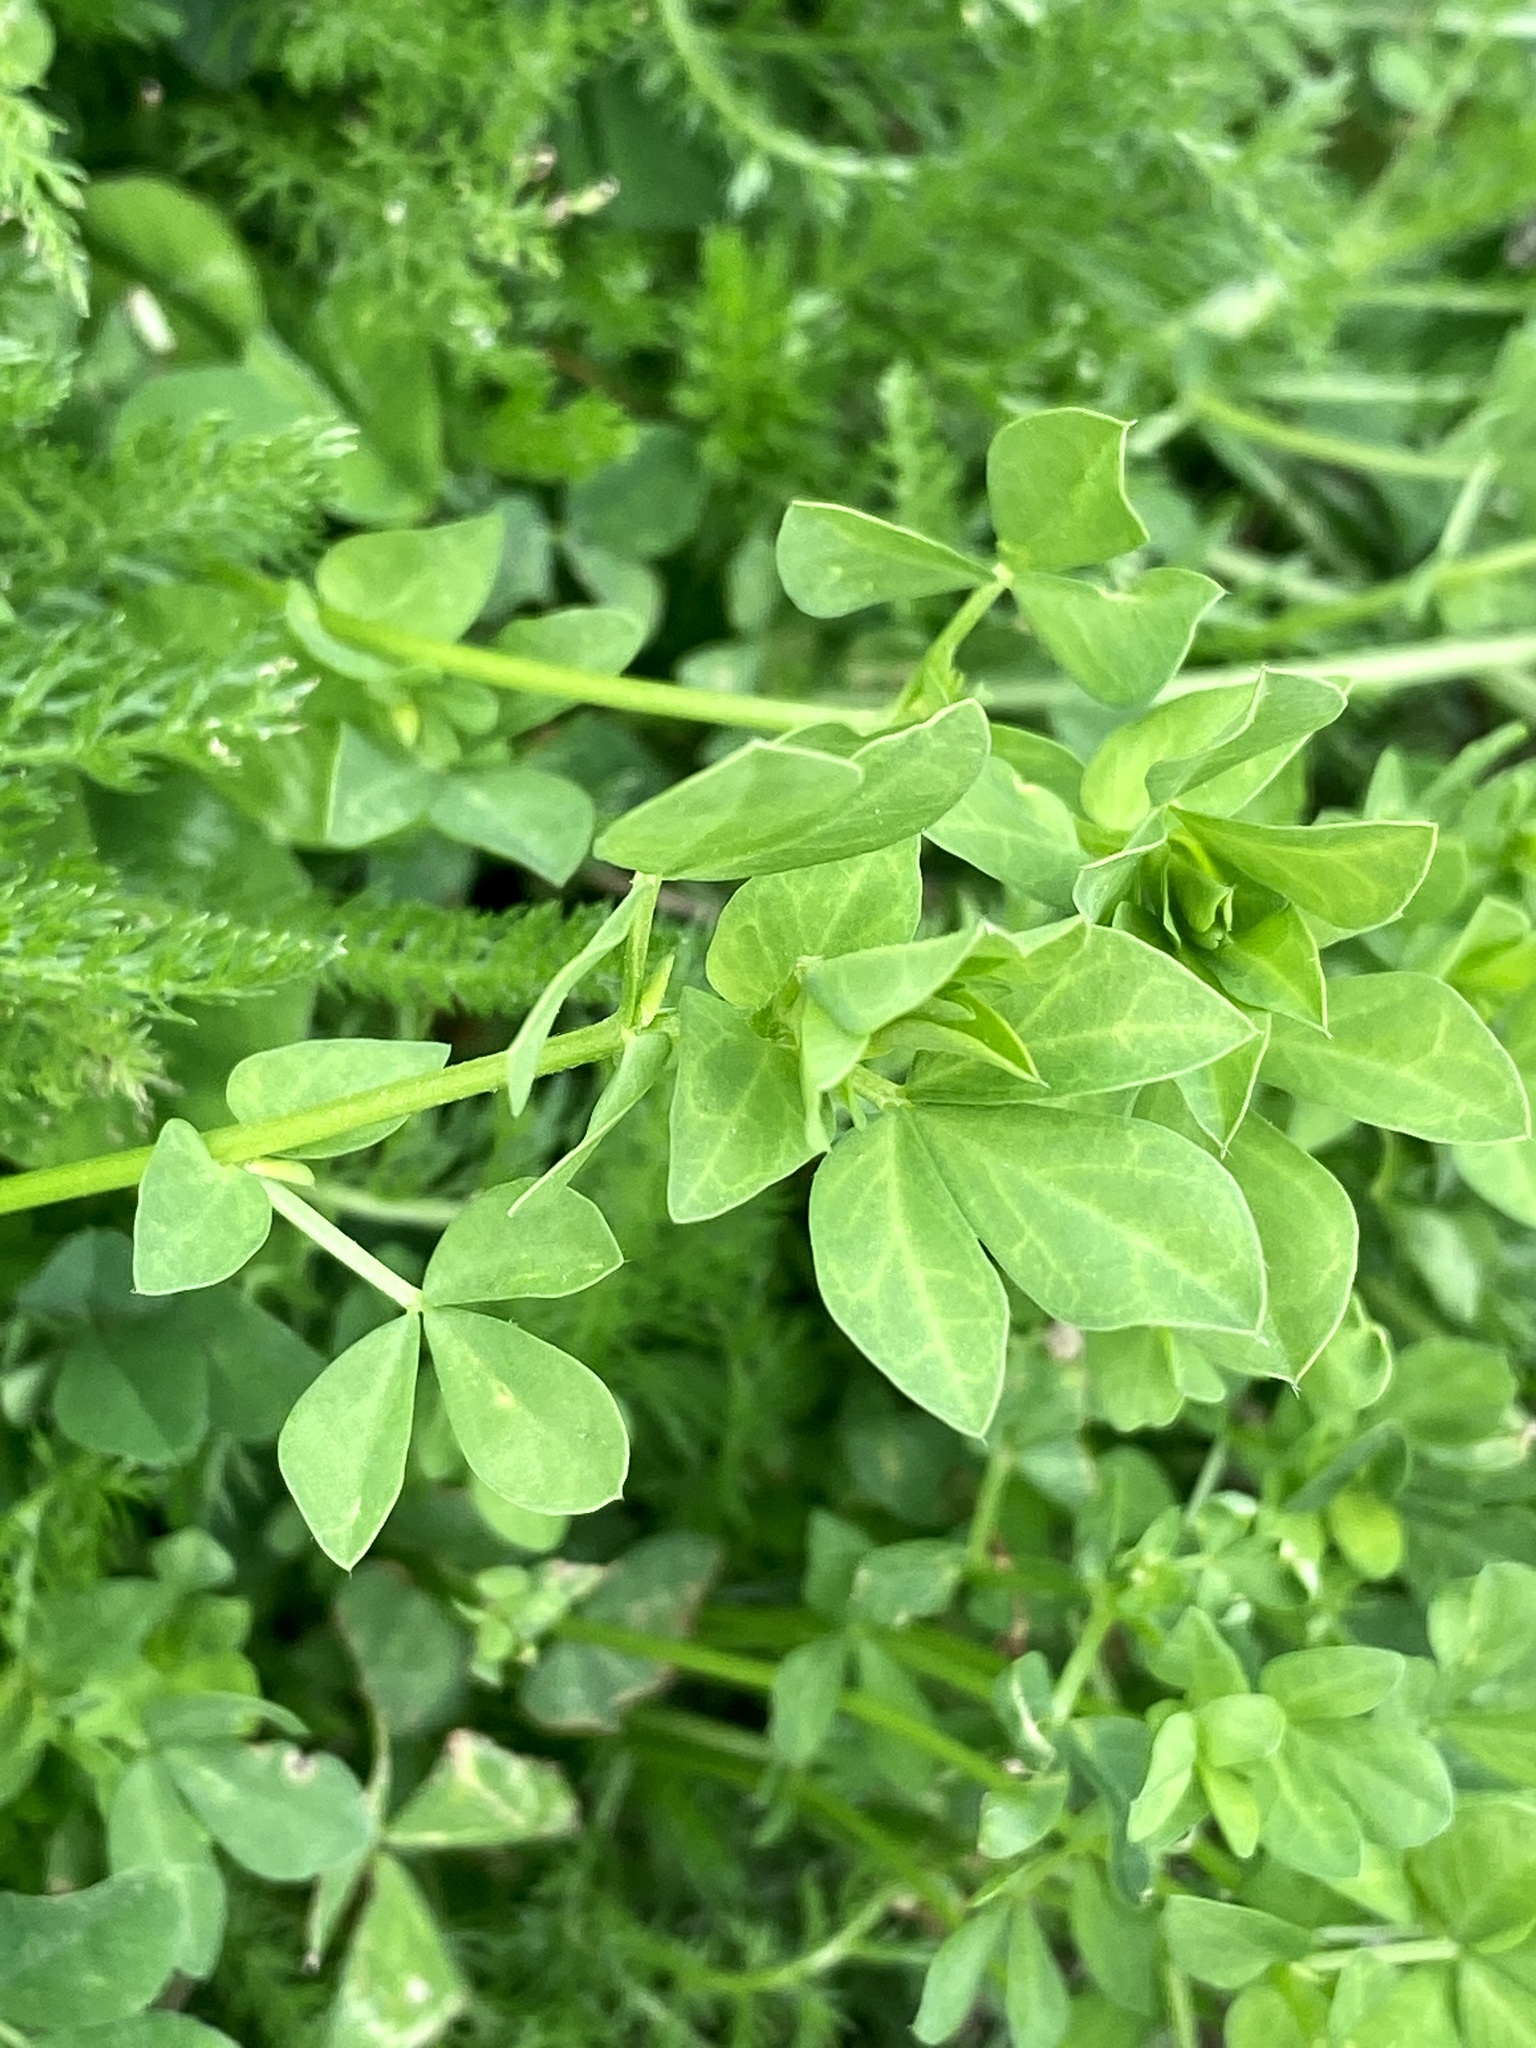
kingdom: Plantae
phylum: Tracheophyta
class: Magnoliopsida
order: Fabales
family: Fabaceae
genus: Lotus
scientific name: Lotus corniculatus
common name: Common bird's-foot-trefoil
